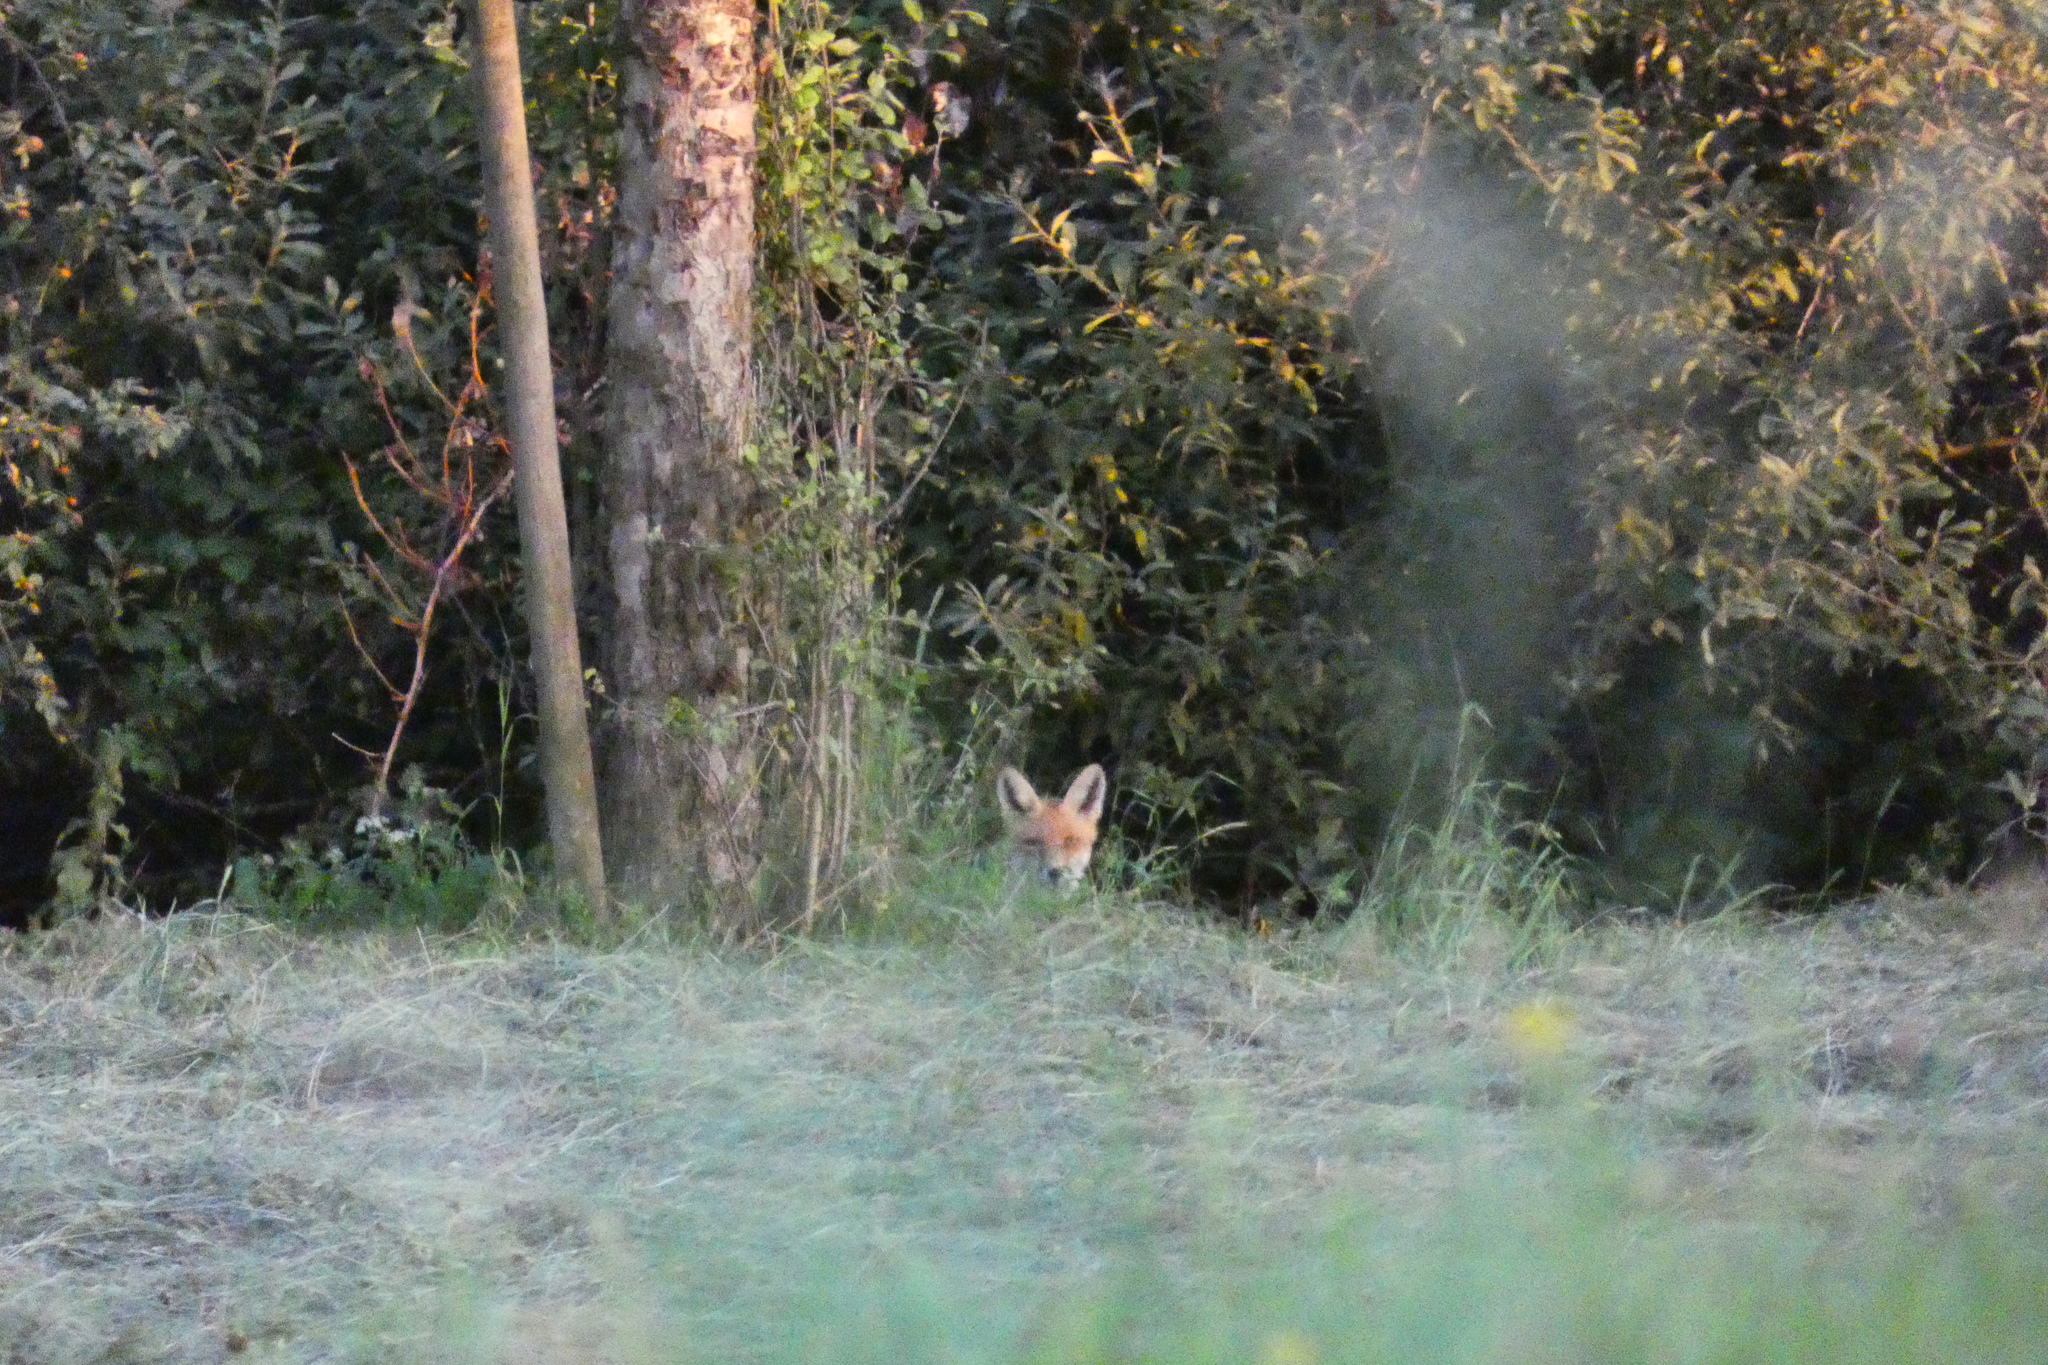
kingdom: Animalia
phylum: Chordata
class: Mammalia
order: Carnivora
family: Canidae
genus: Vulpes
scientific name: Vulpes vulpes
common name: Red fox
